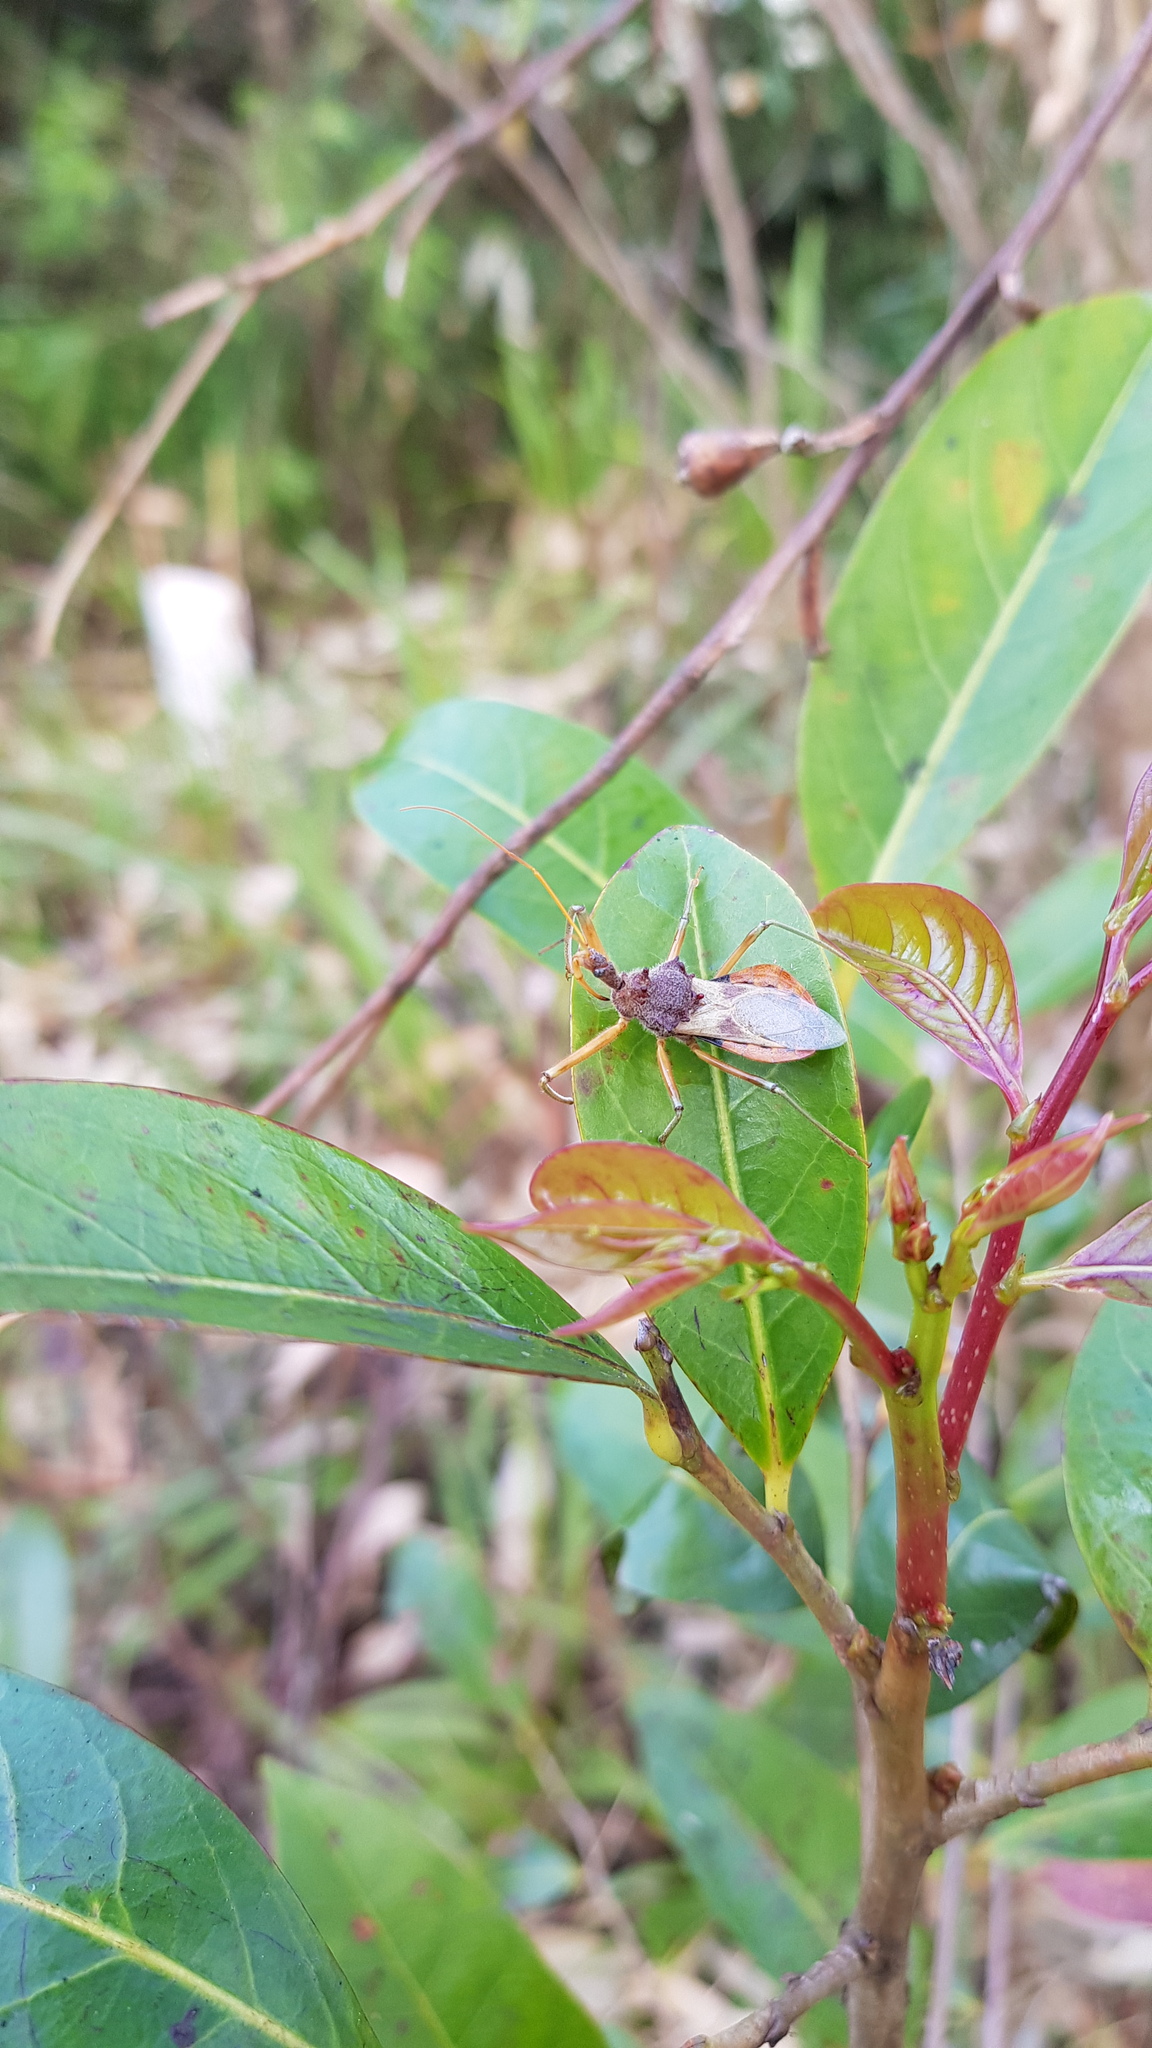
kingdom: Animalia
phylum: Arthropoda
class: Insecta
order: Hemiptera
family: Reduviidae
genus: Pristhesancus
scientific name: Pristhesancus plagipennis
